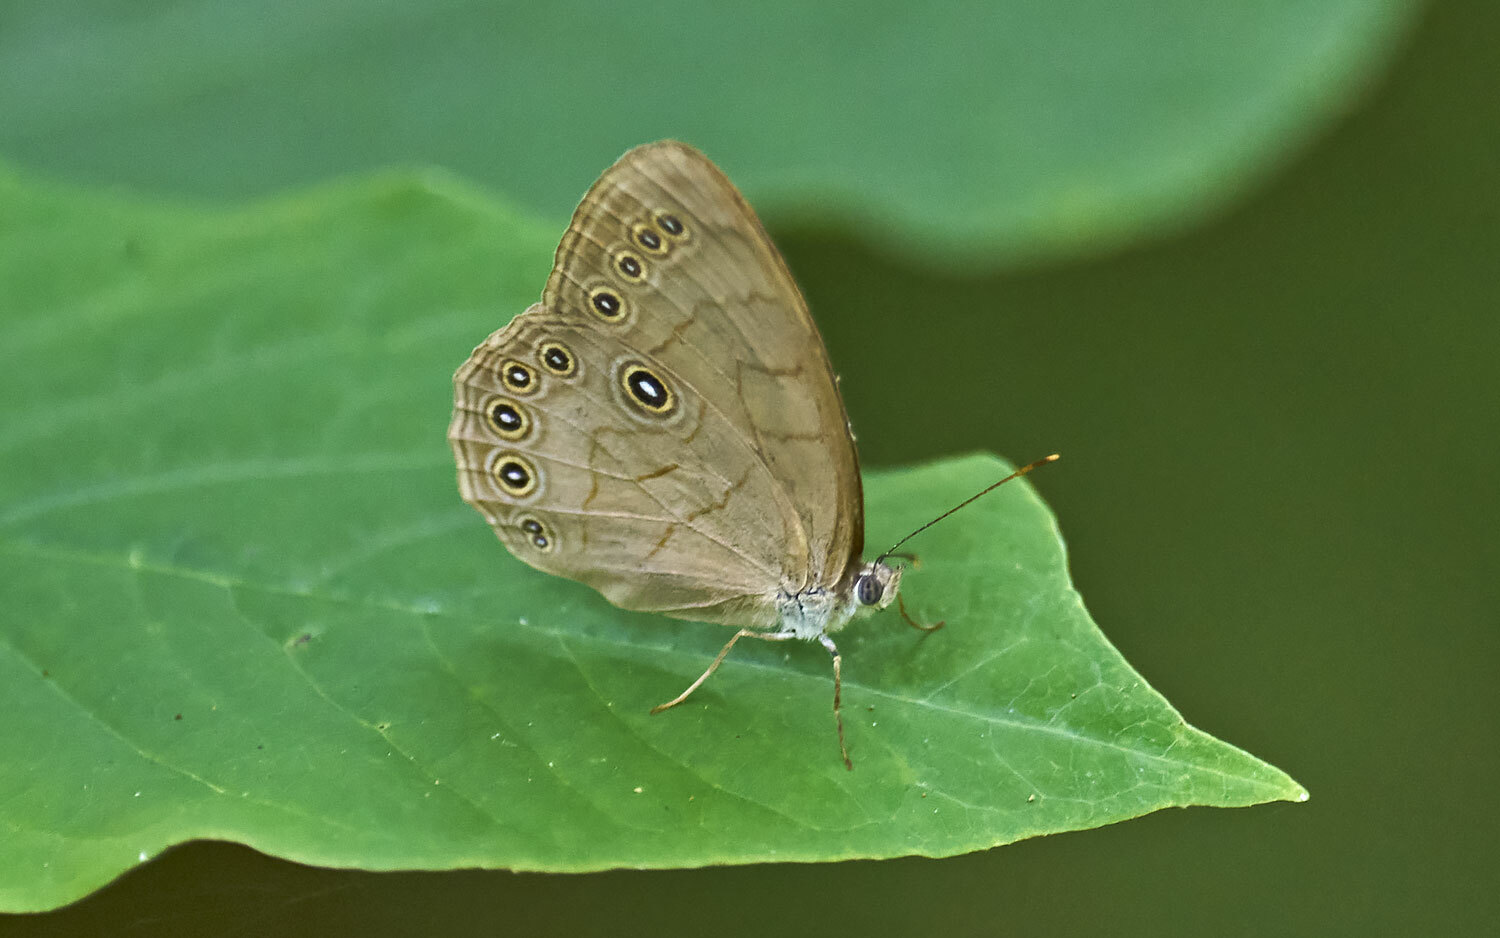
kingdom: Animalia
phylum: Arthropoda
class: Insecta
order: Lepidoptera
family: Nymphalidae
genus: Lethe
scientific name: Lethe eurydice
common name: Eyed brown
